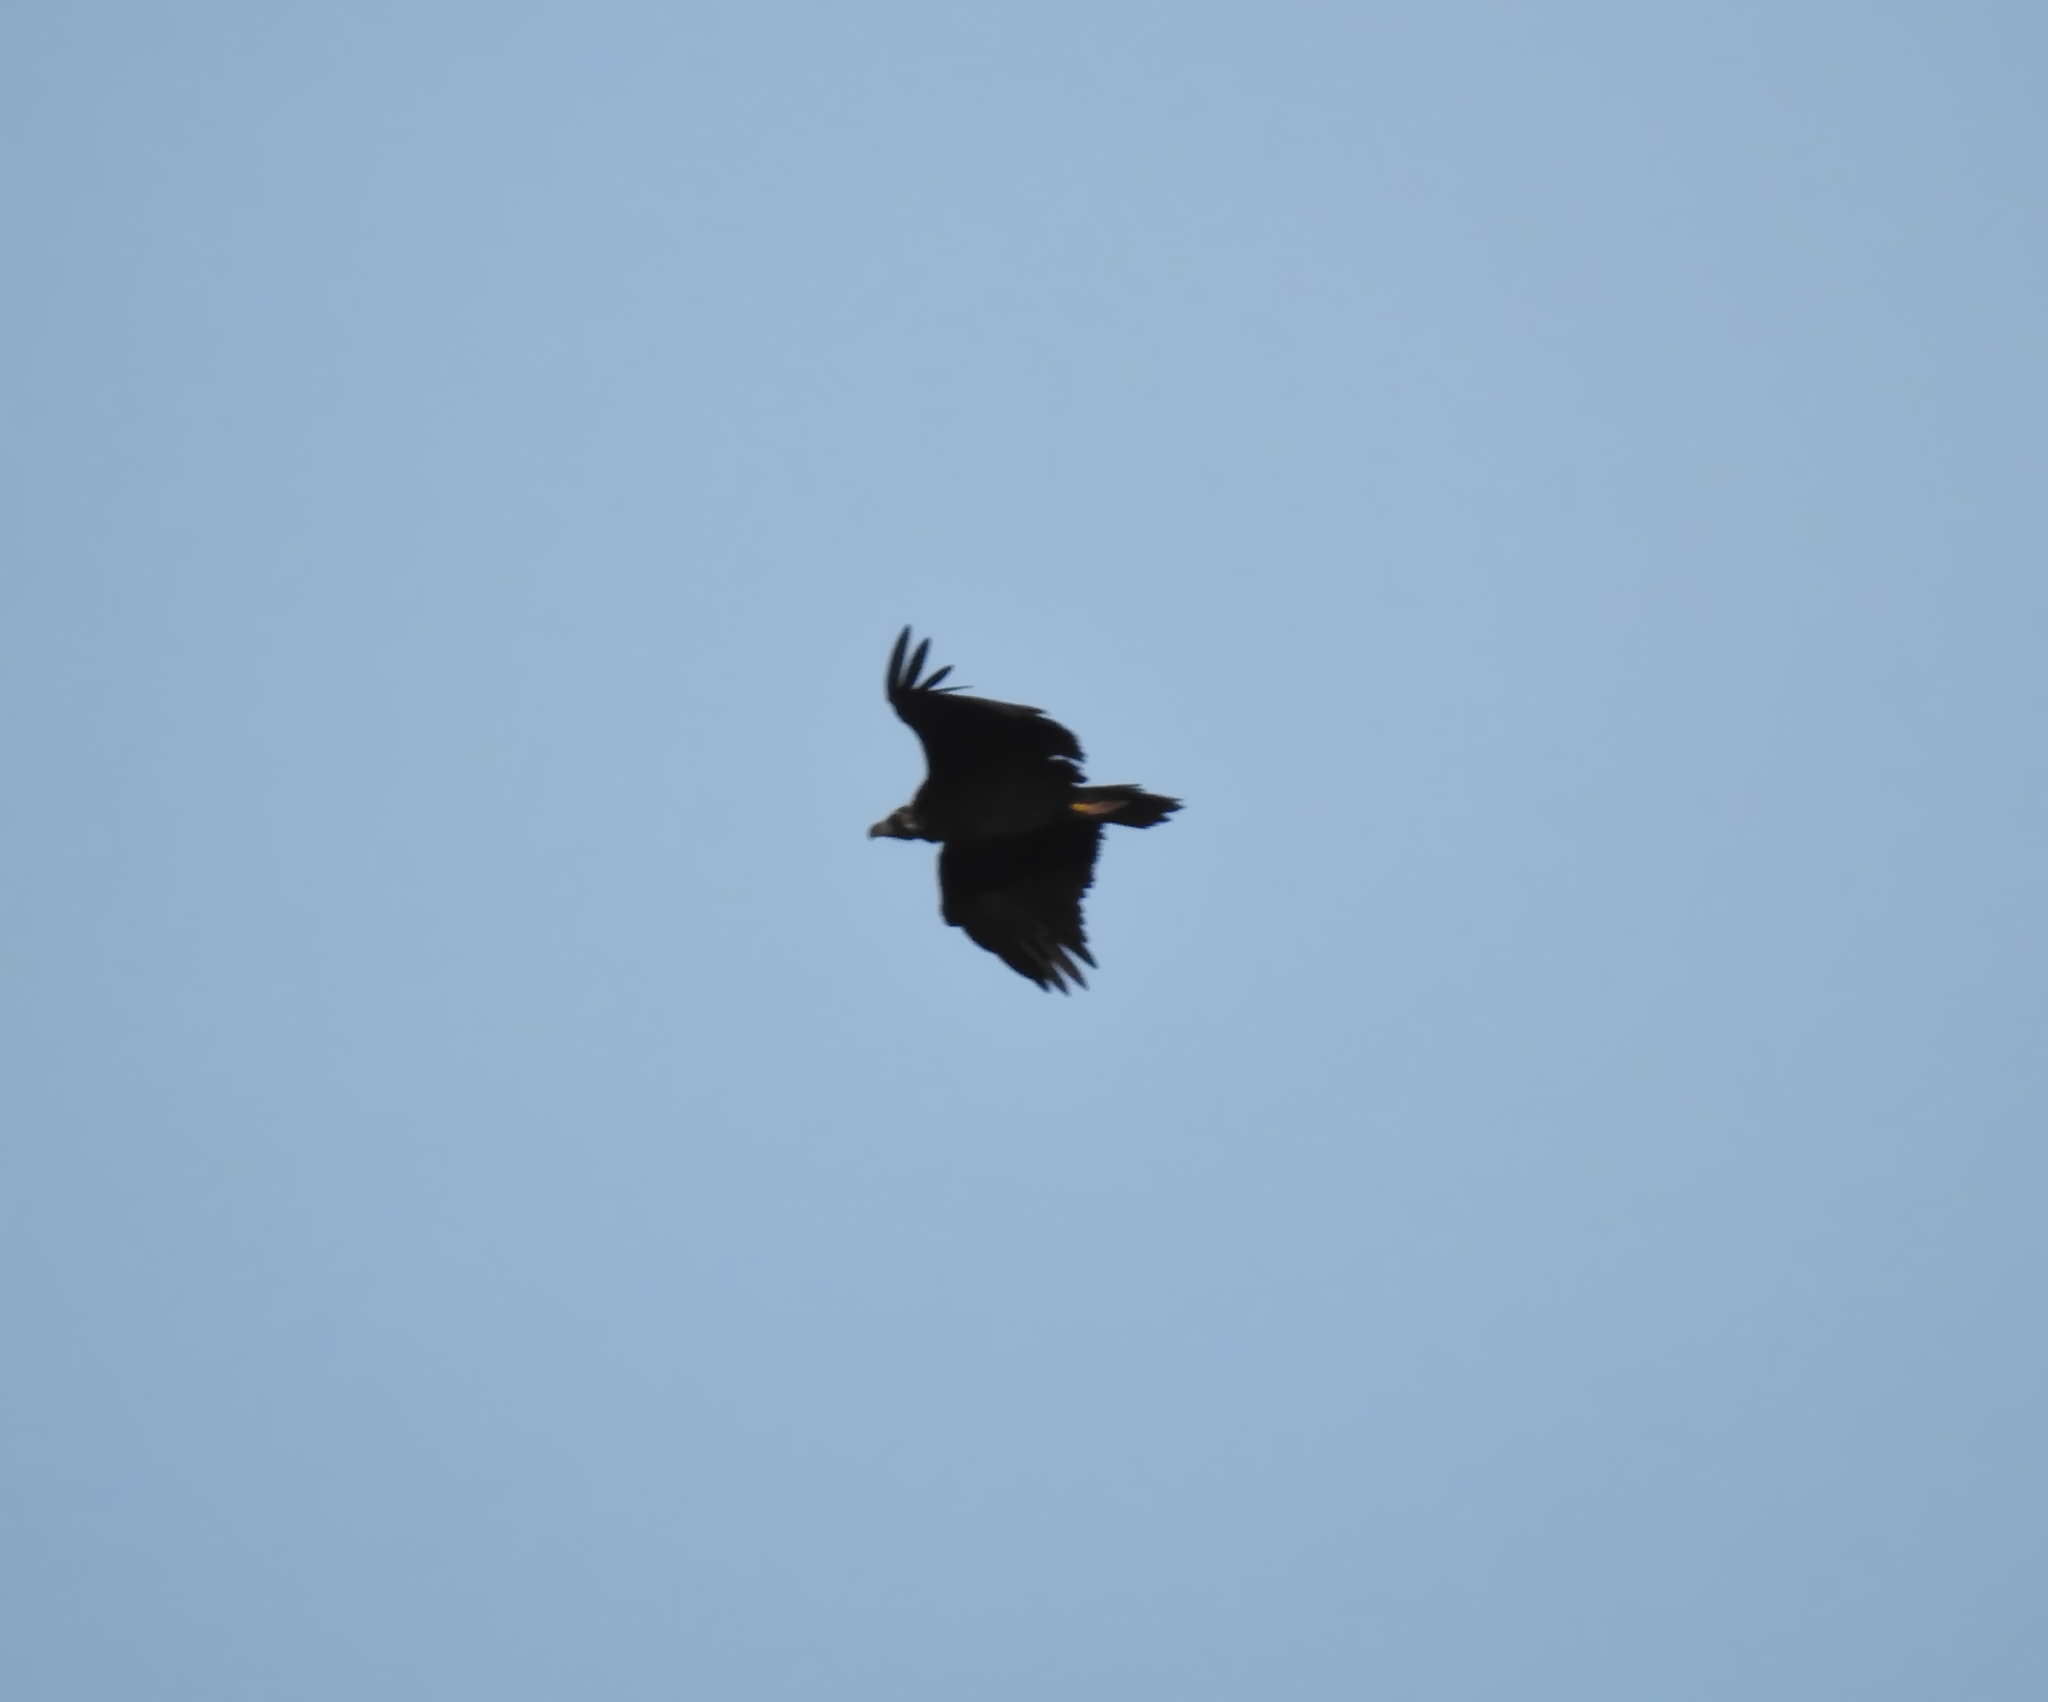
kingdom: Animalia
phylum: Chordata
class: Aves
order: Accipitriformes
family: Accipitridae
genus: Aegypius
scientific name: Aegypius monachus
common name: Cinereous vulture
